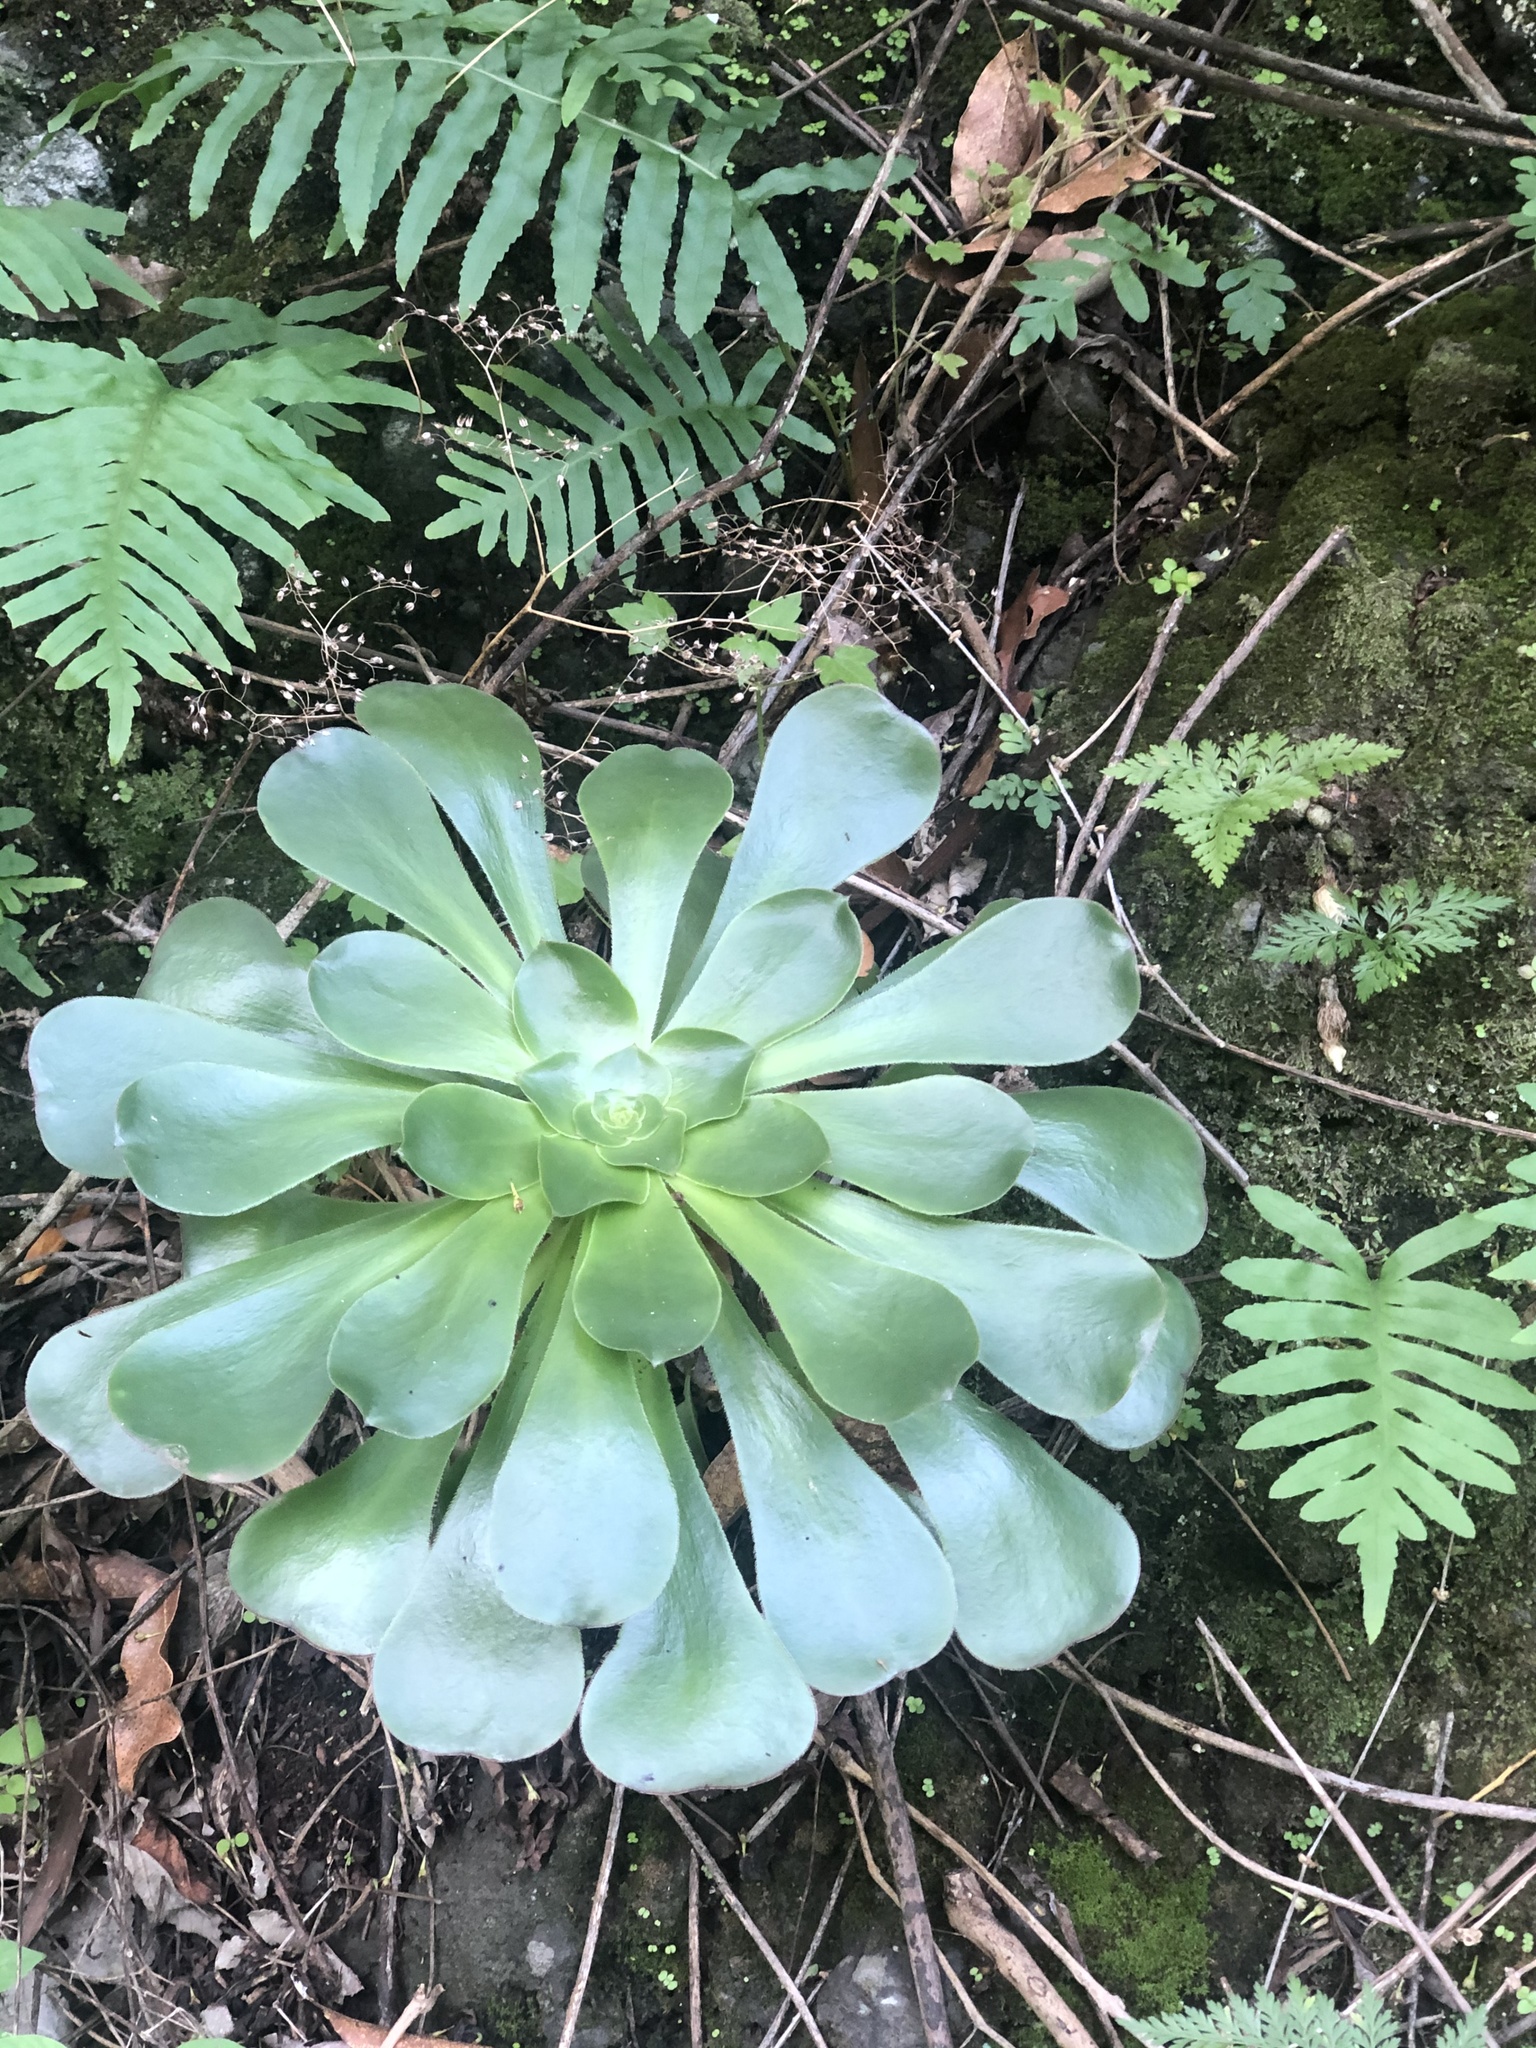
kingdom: Plantae
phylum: Tracheophyta
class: Magnoliopsida
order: Saxifragales
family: Crassulaceae
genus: Aeonium
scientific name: Aeonium undulatum
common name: Saucer-plant
